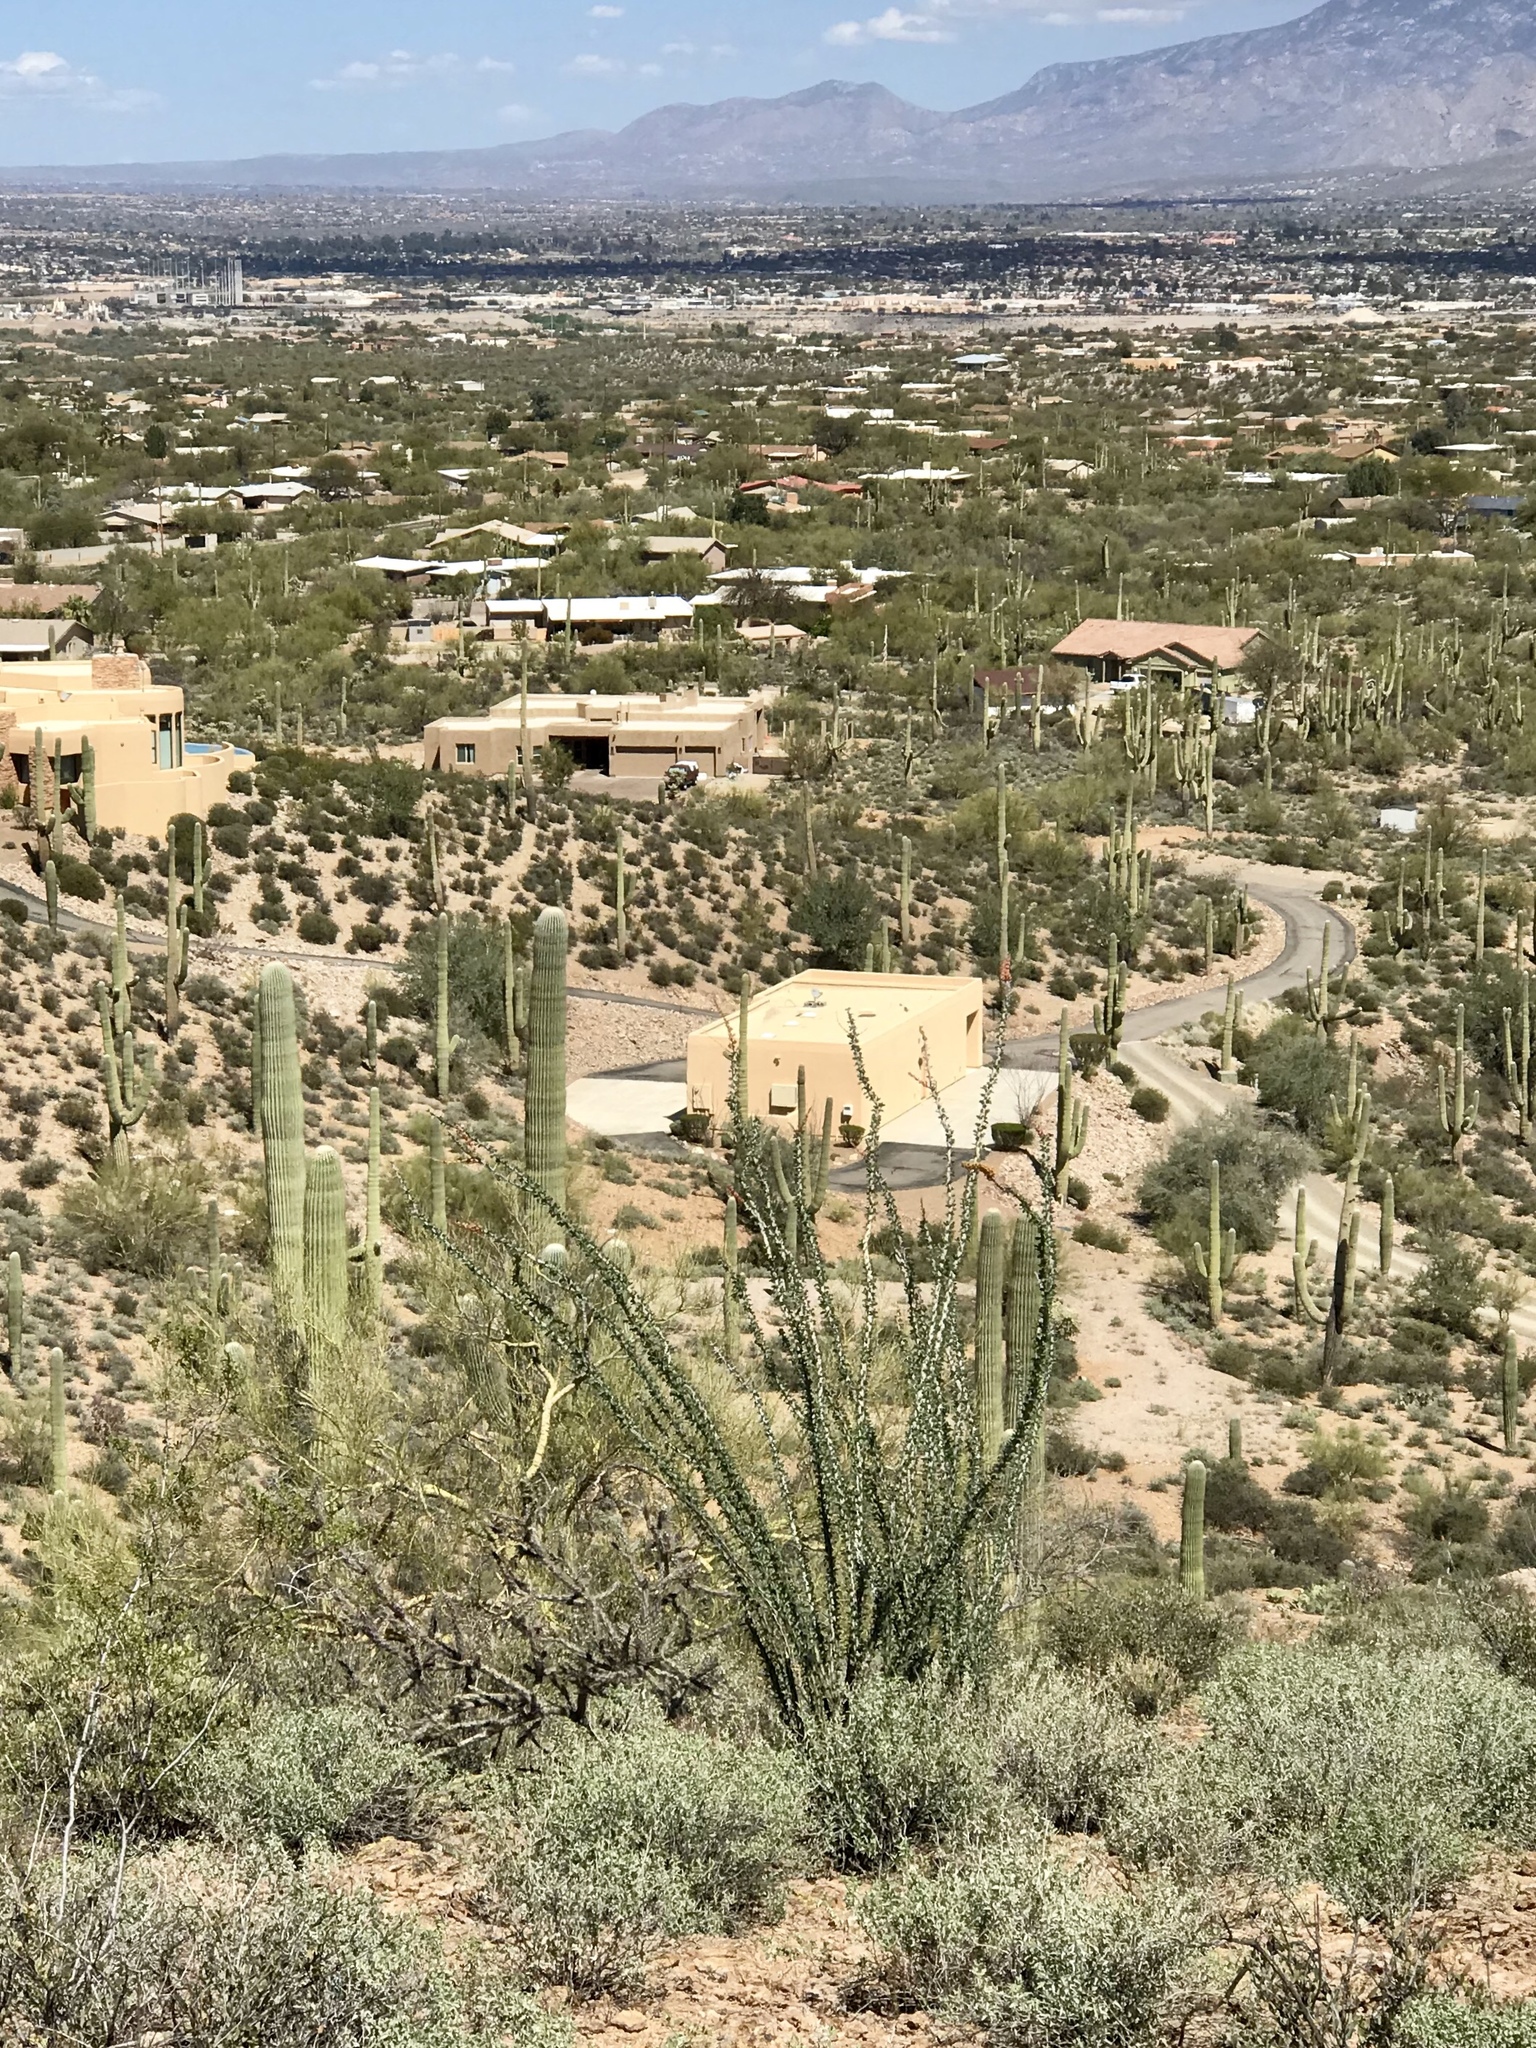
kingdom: Plantae
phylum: Tracheophyta
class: Magnoliopsida
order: Ericales
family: Fouquieriaceae
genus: Fouquieria
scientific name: Fouquieria splendens
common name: Vine-cactus
